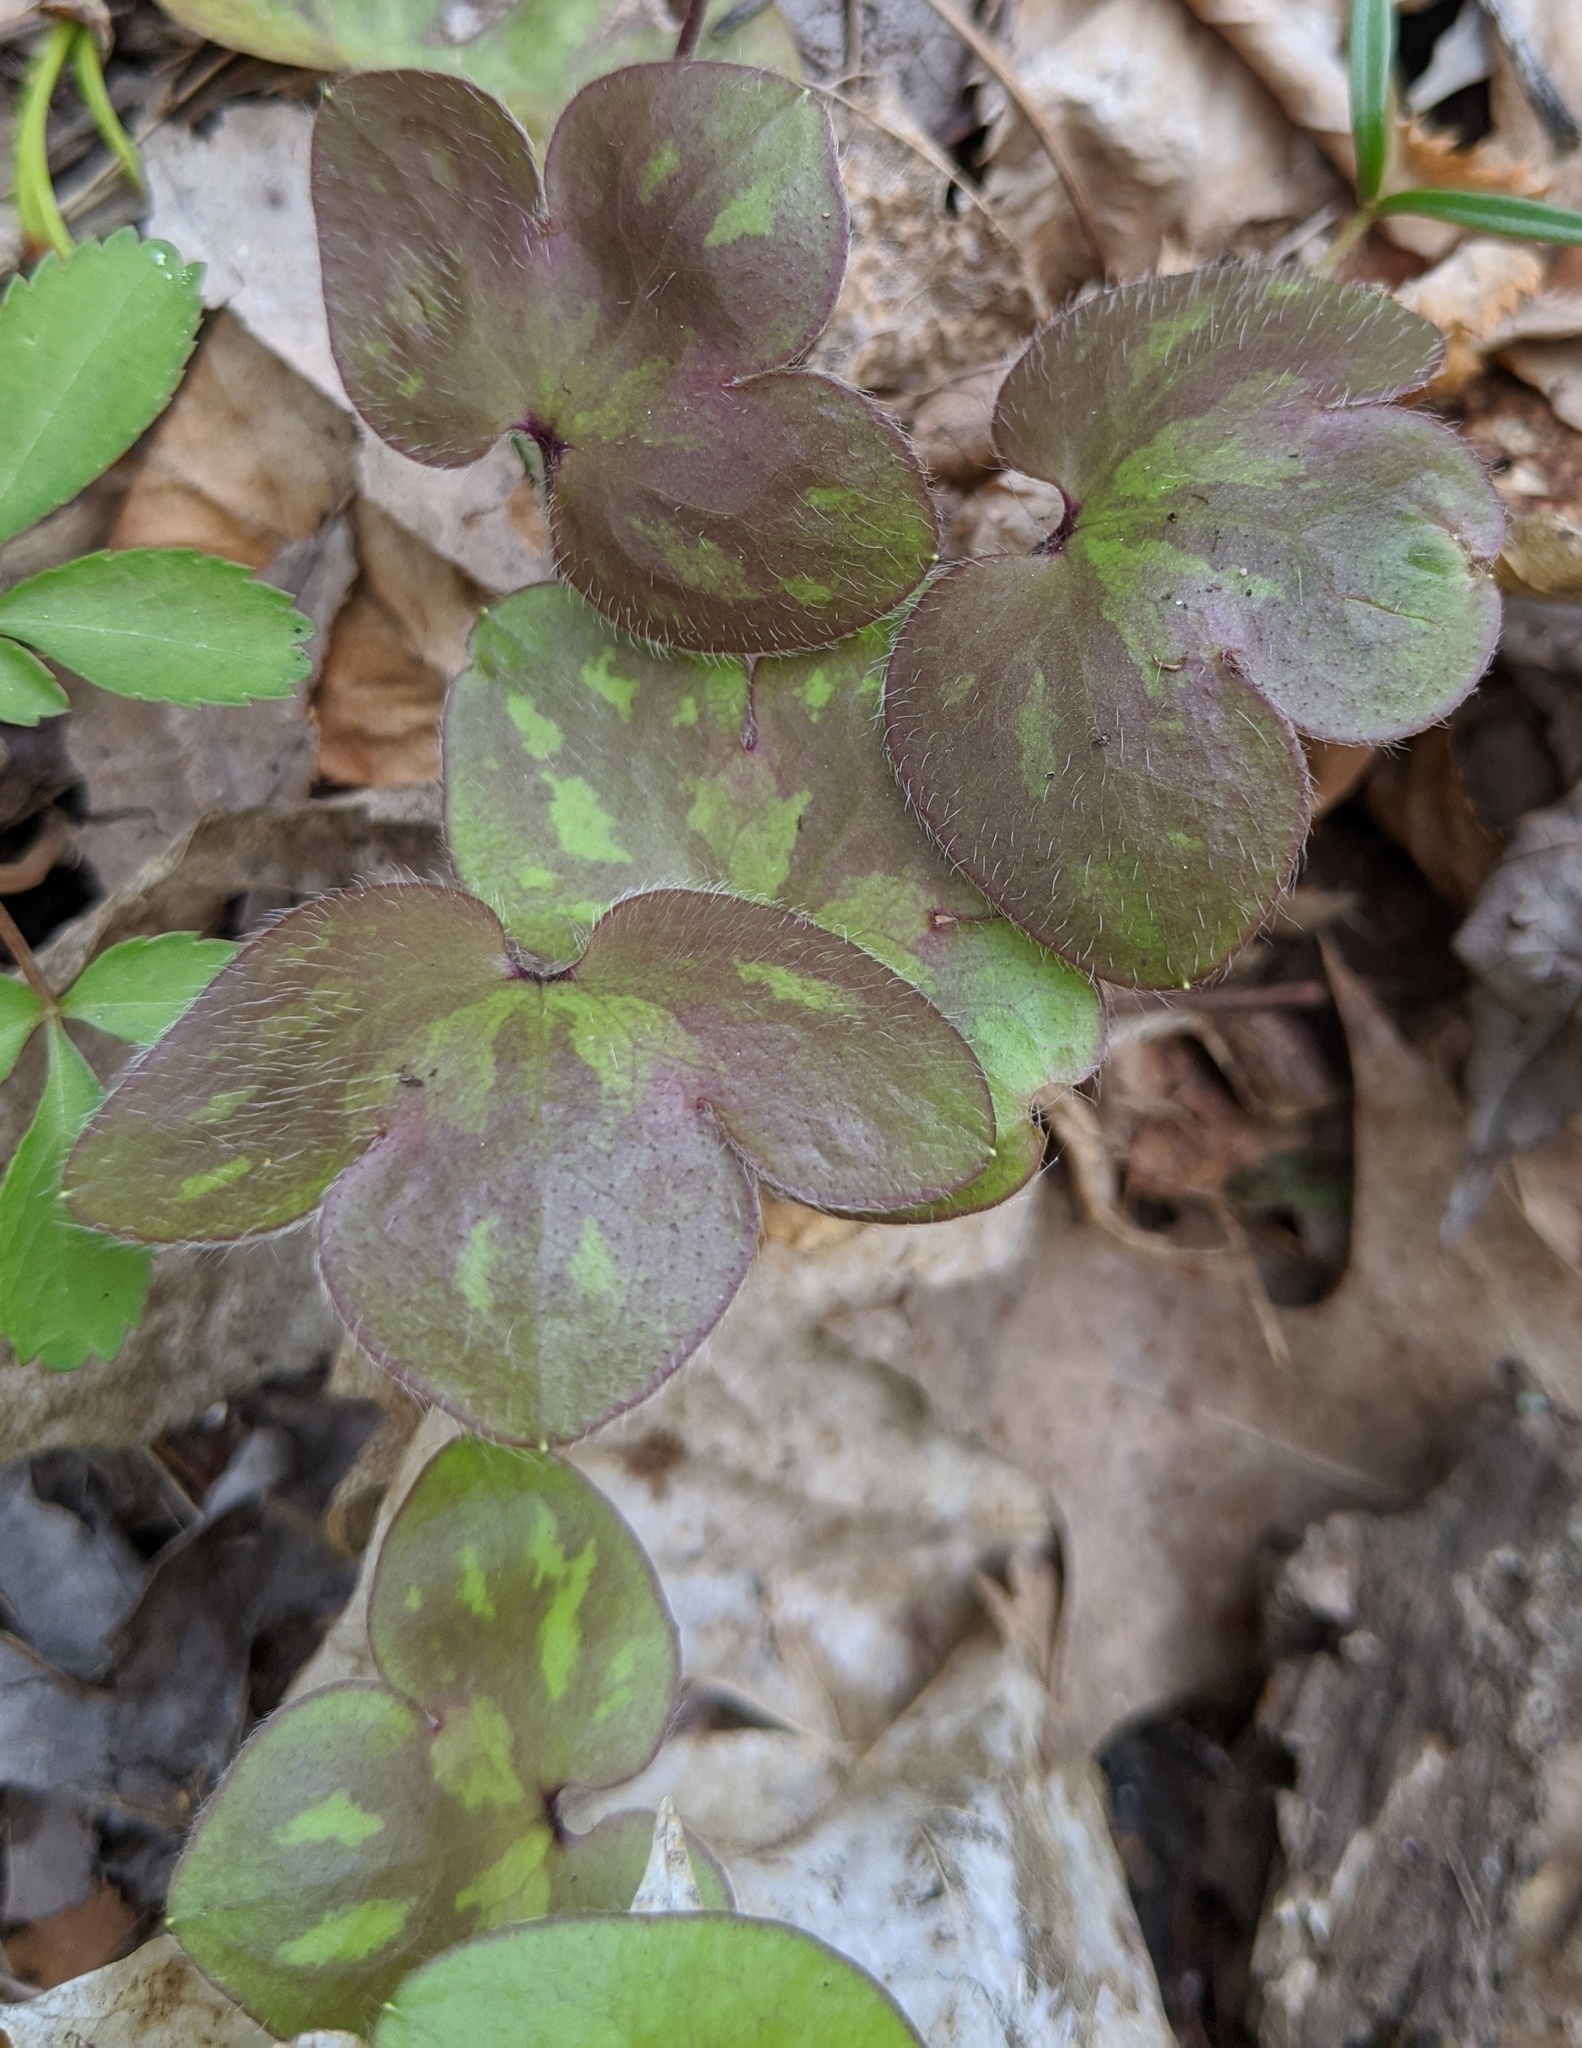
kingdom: Plantae
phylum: Tracheophyta
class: Magnoliopsida
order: Ranunculales
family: Ranunculaceae
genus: Hepatica
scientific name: Hepatica americana
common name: American hepatica
